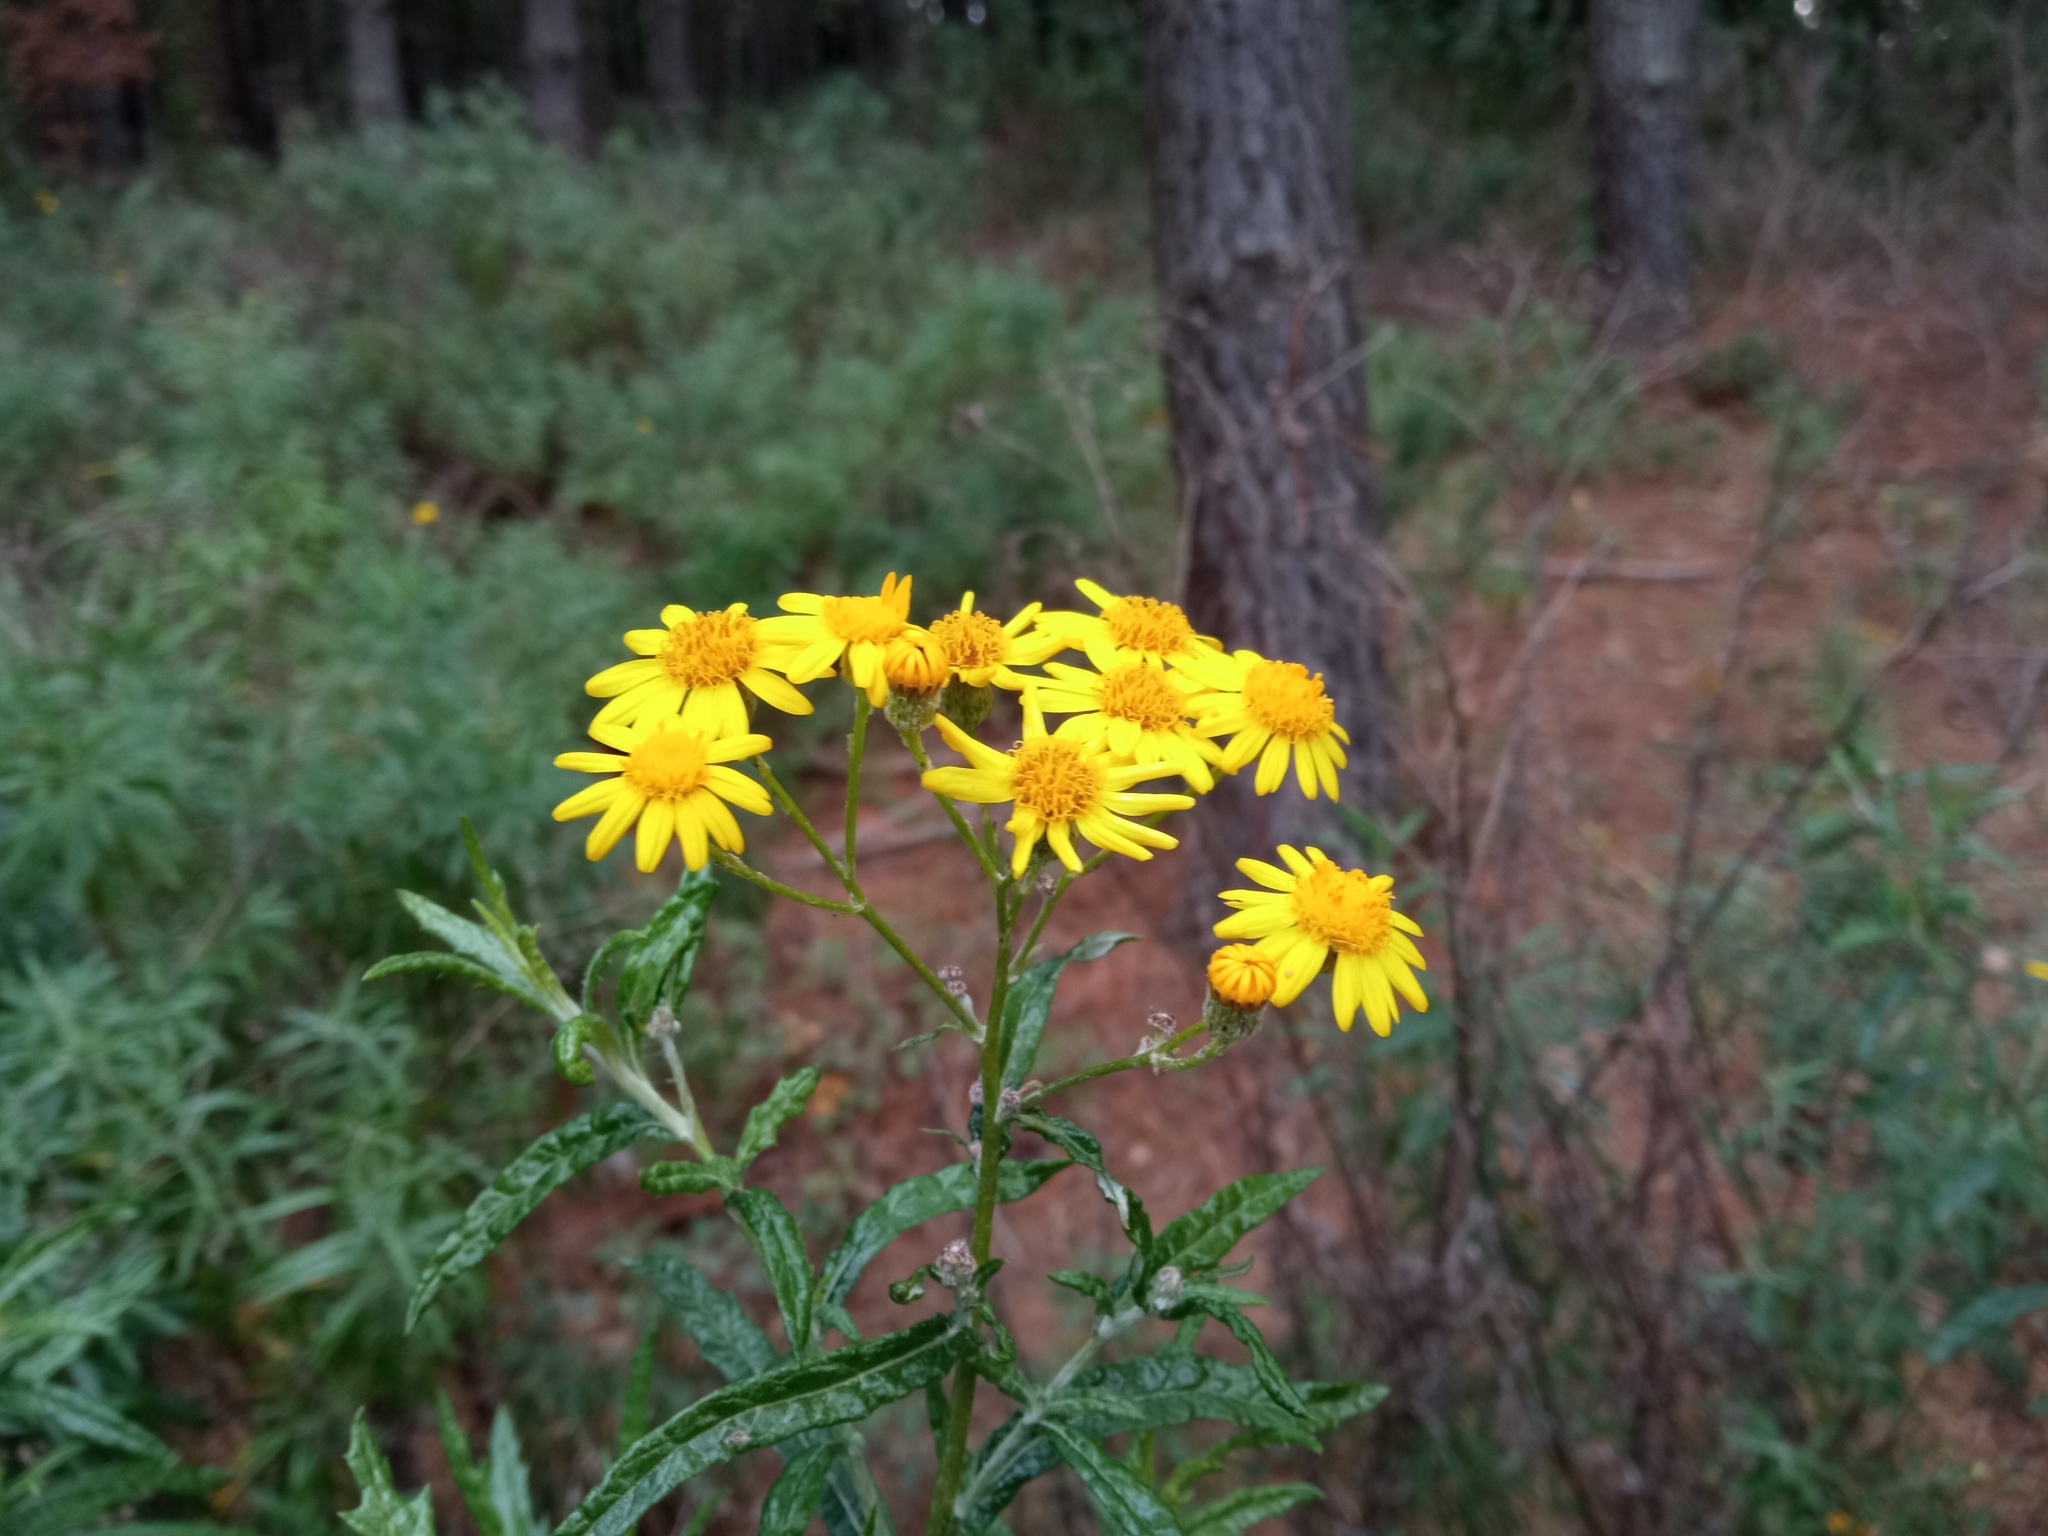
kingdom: Plantae
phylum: Tracheophyta
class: Magnoliopsida
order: Asterales
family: Asteraceae
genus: Senecio
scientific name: Senecio pterophorus
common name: Shoddy ragwort
